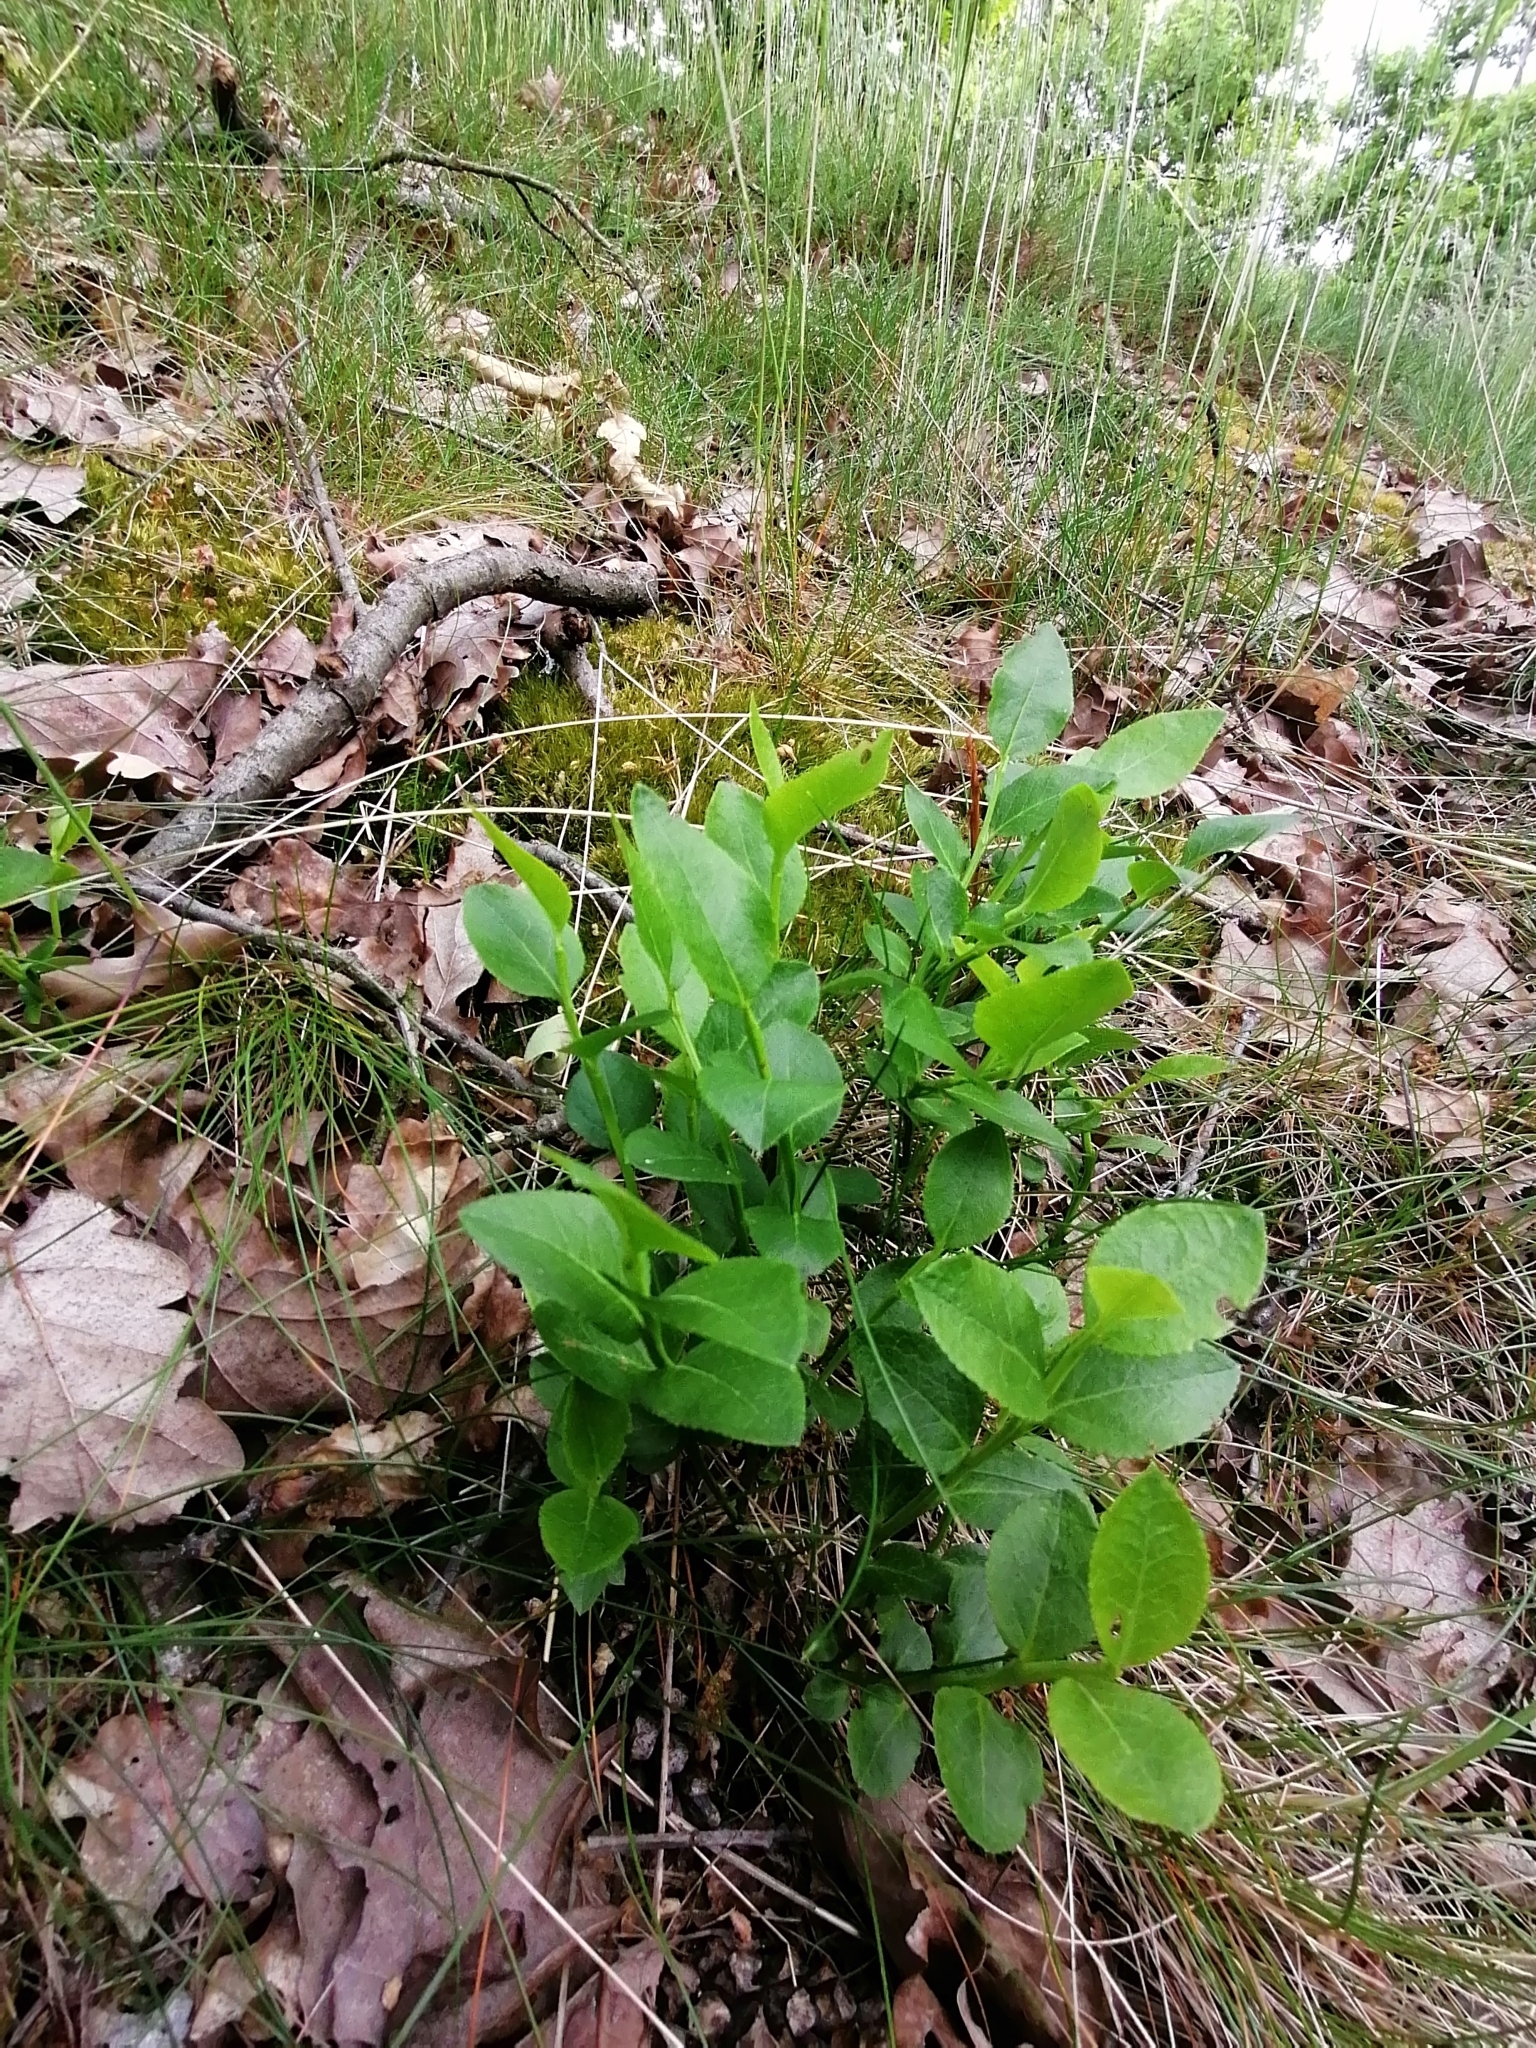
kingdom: Plantae
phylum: Tracheophyta
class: Magnoliopsida
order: Ericales
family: Ericaceae
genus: Vaccinium
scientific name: Vaccinium myrtillus
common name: Bilberry
